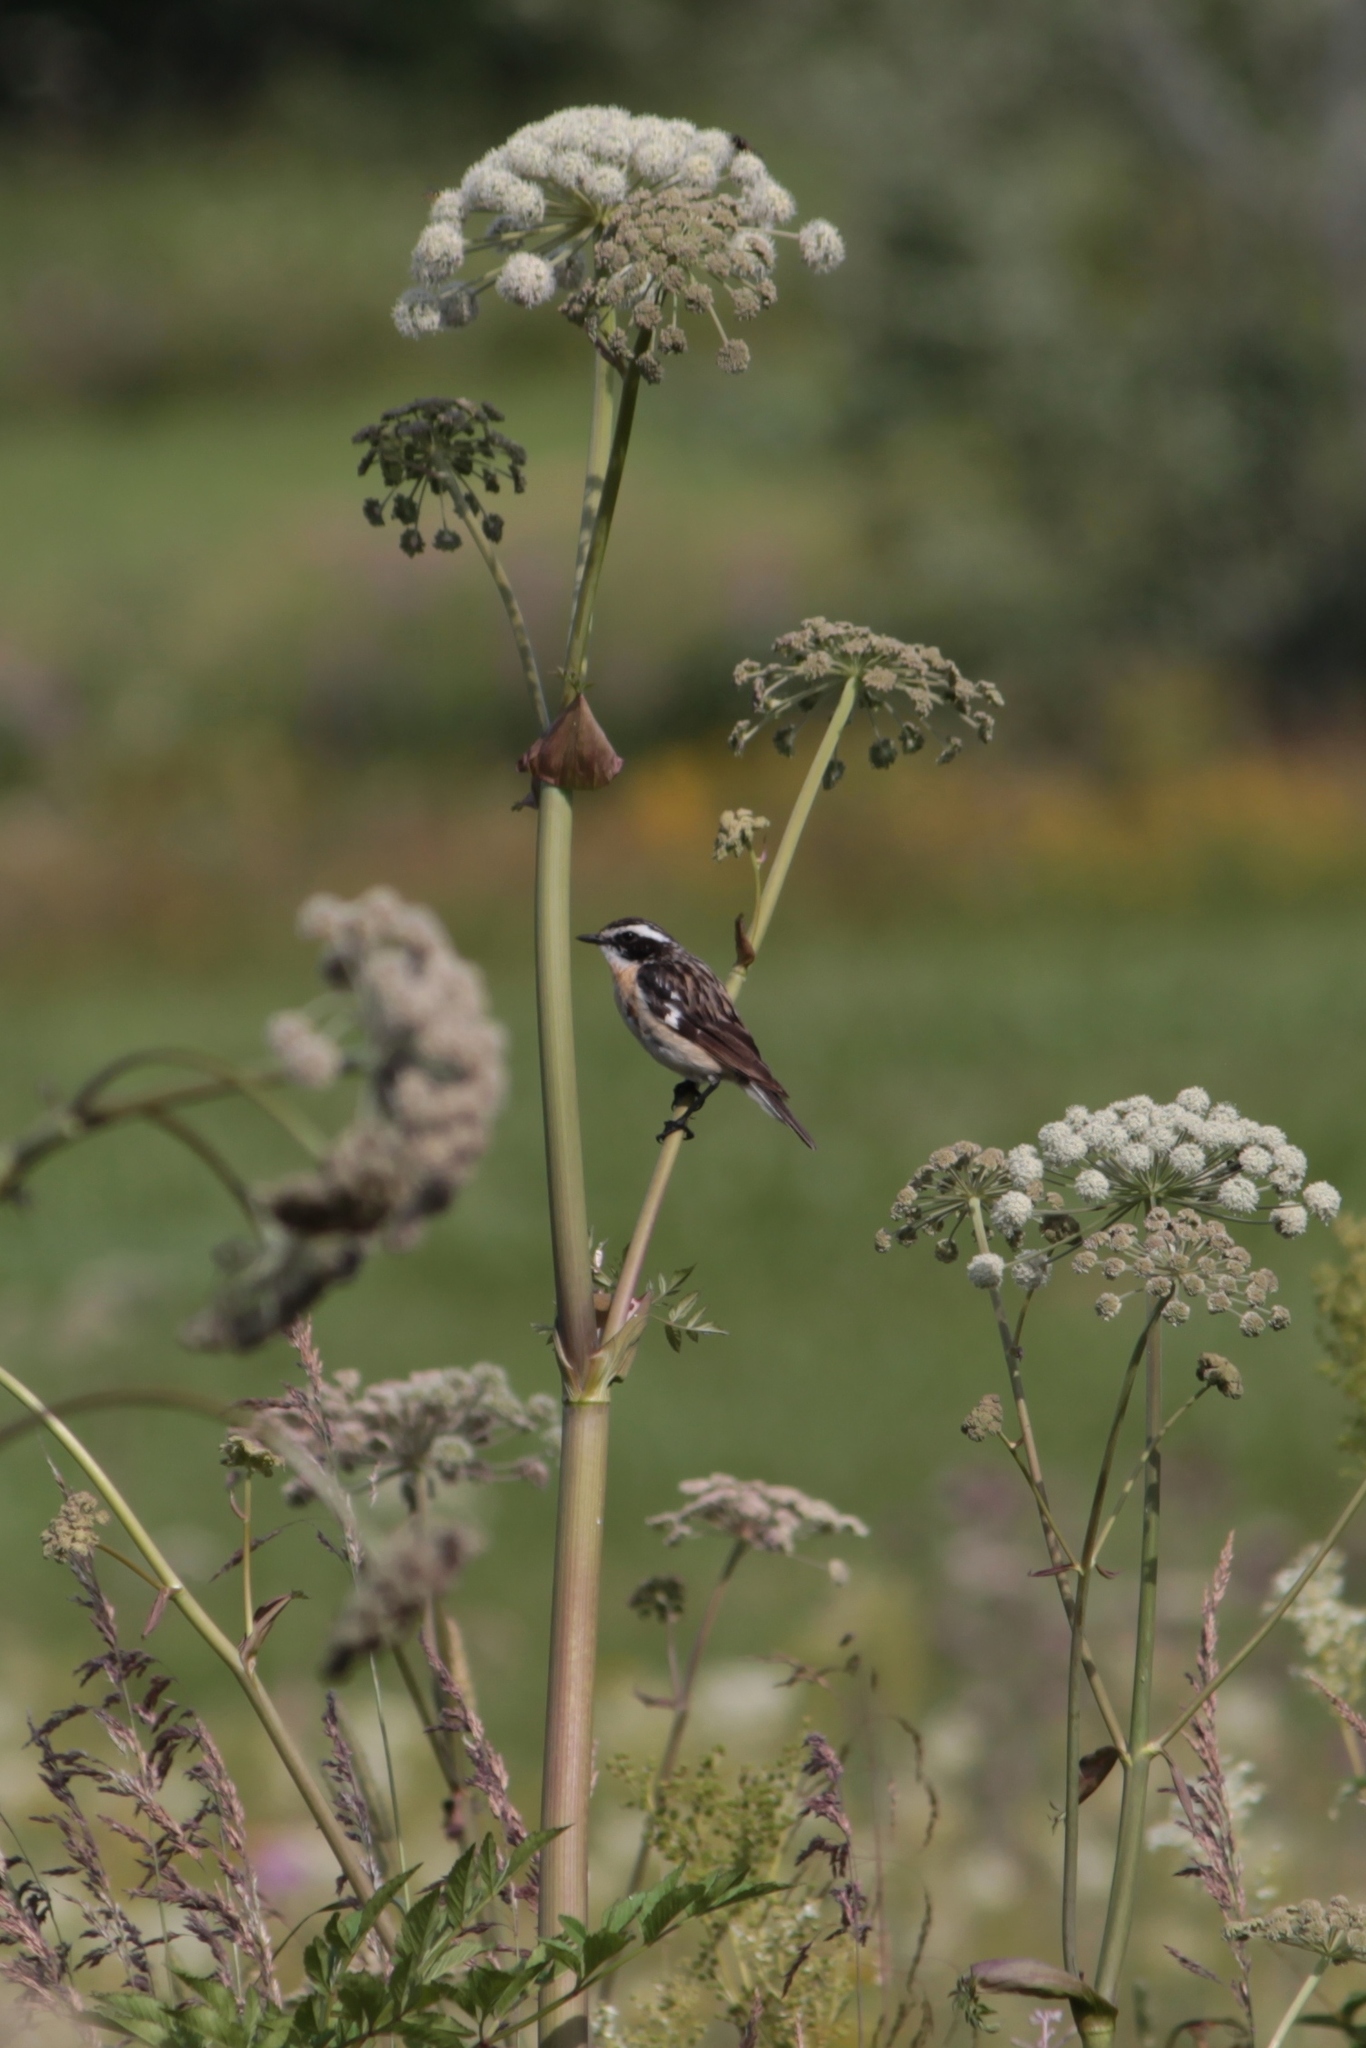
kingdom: Animalia
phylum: Chordata
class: Aves
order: Passeriformes
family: Muscicapidae
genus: Saxicola
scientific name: Saxicola rubetra
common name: Whinchat
